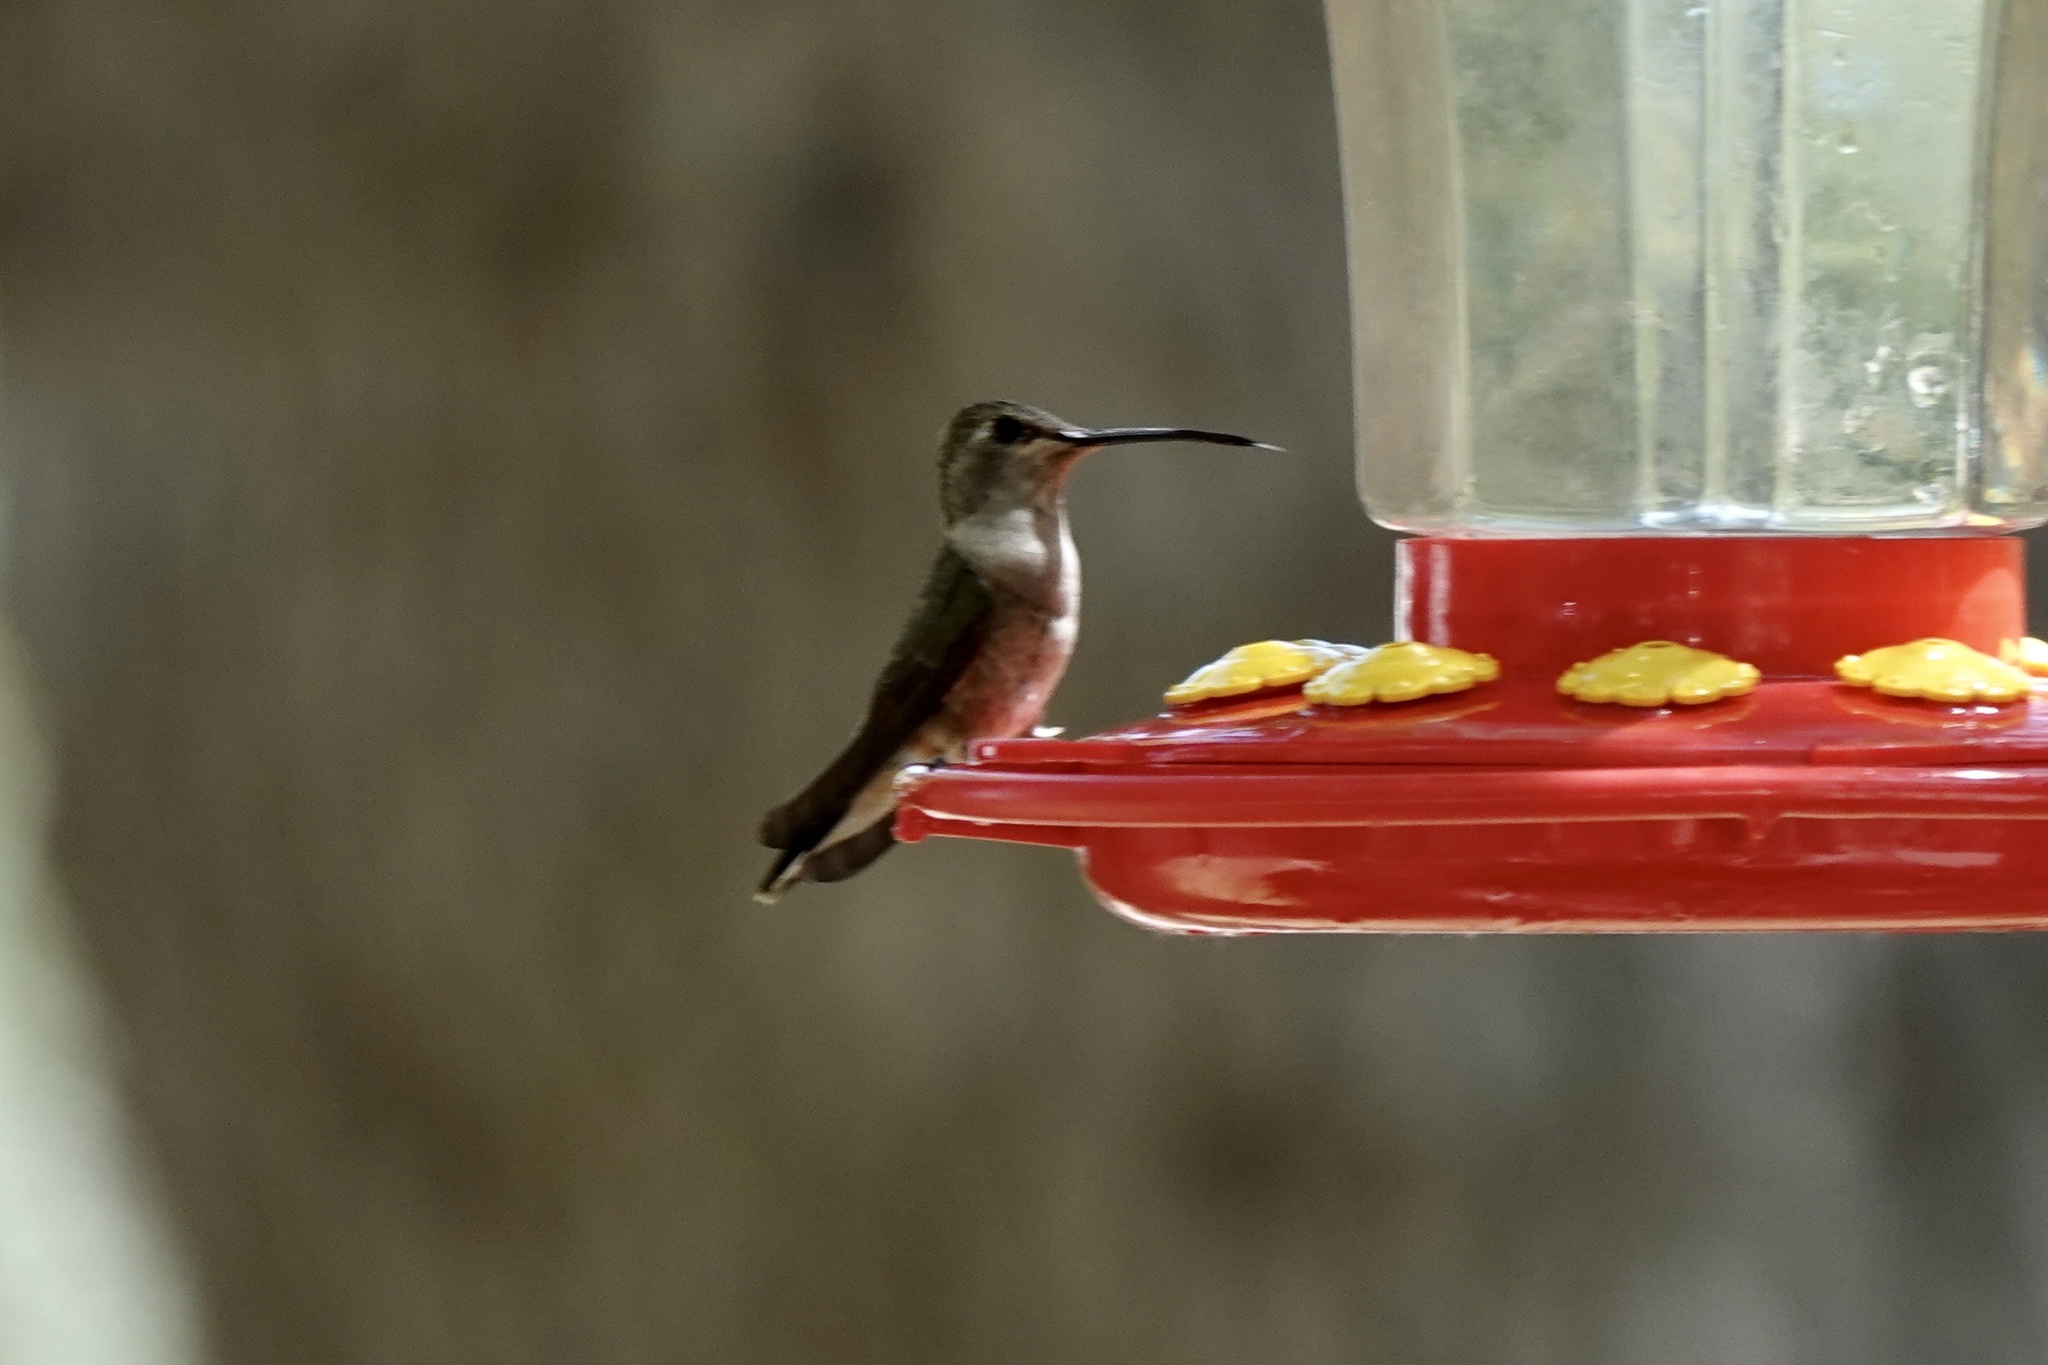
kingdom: Animalia
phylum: Chordata
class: Aves
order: Apodiformes
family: Trochilidae
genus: Archilochus
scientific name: Archilochus alexandri
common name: Black-chinned hummingbird
